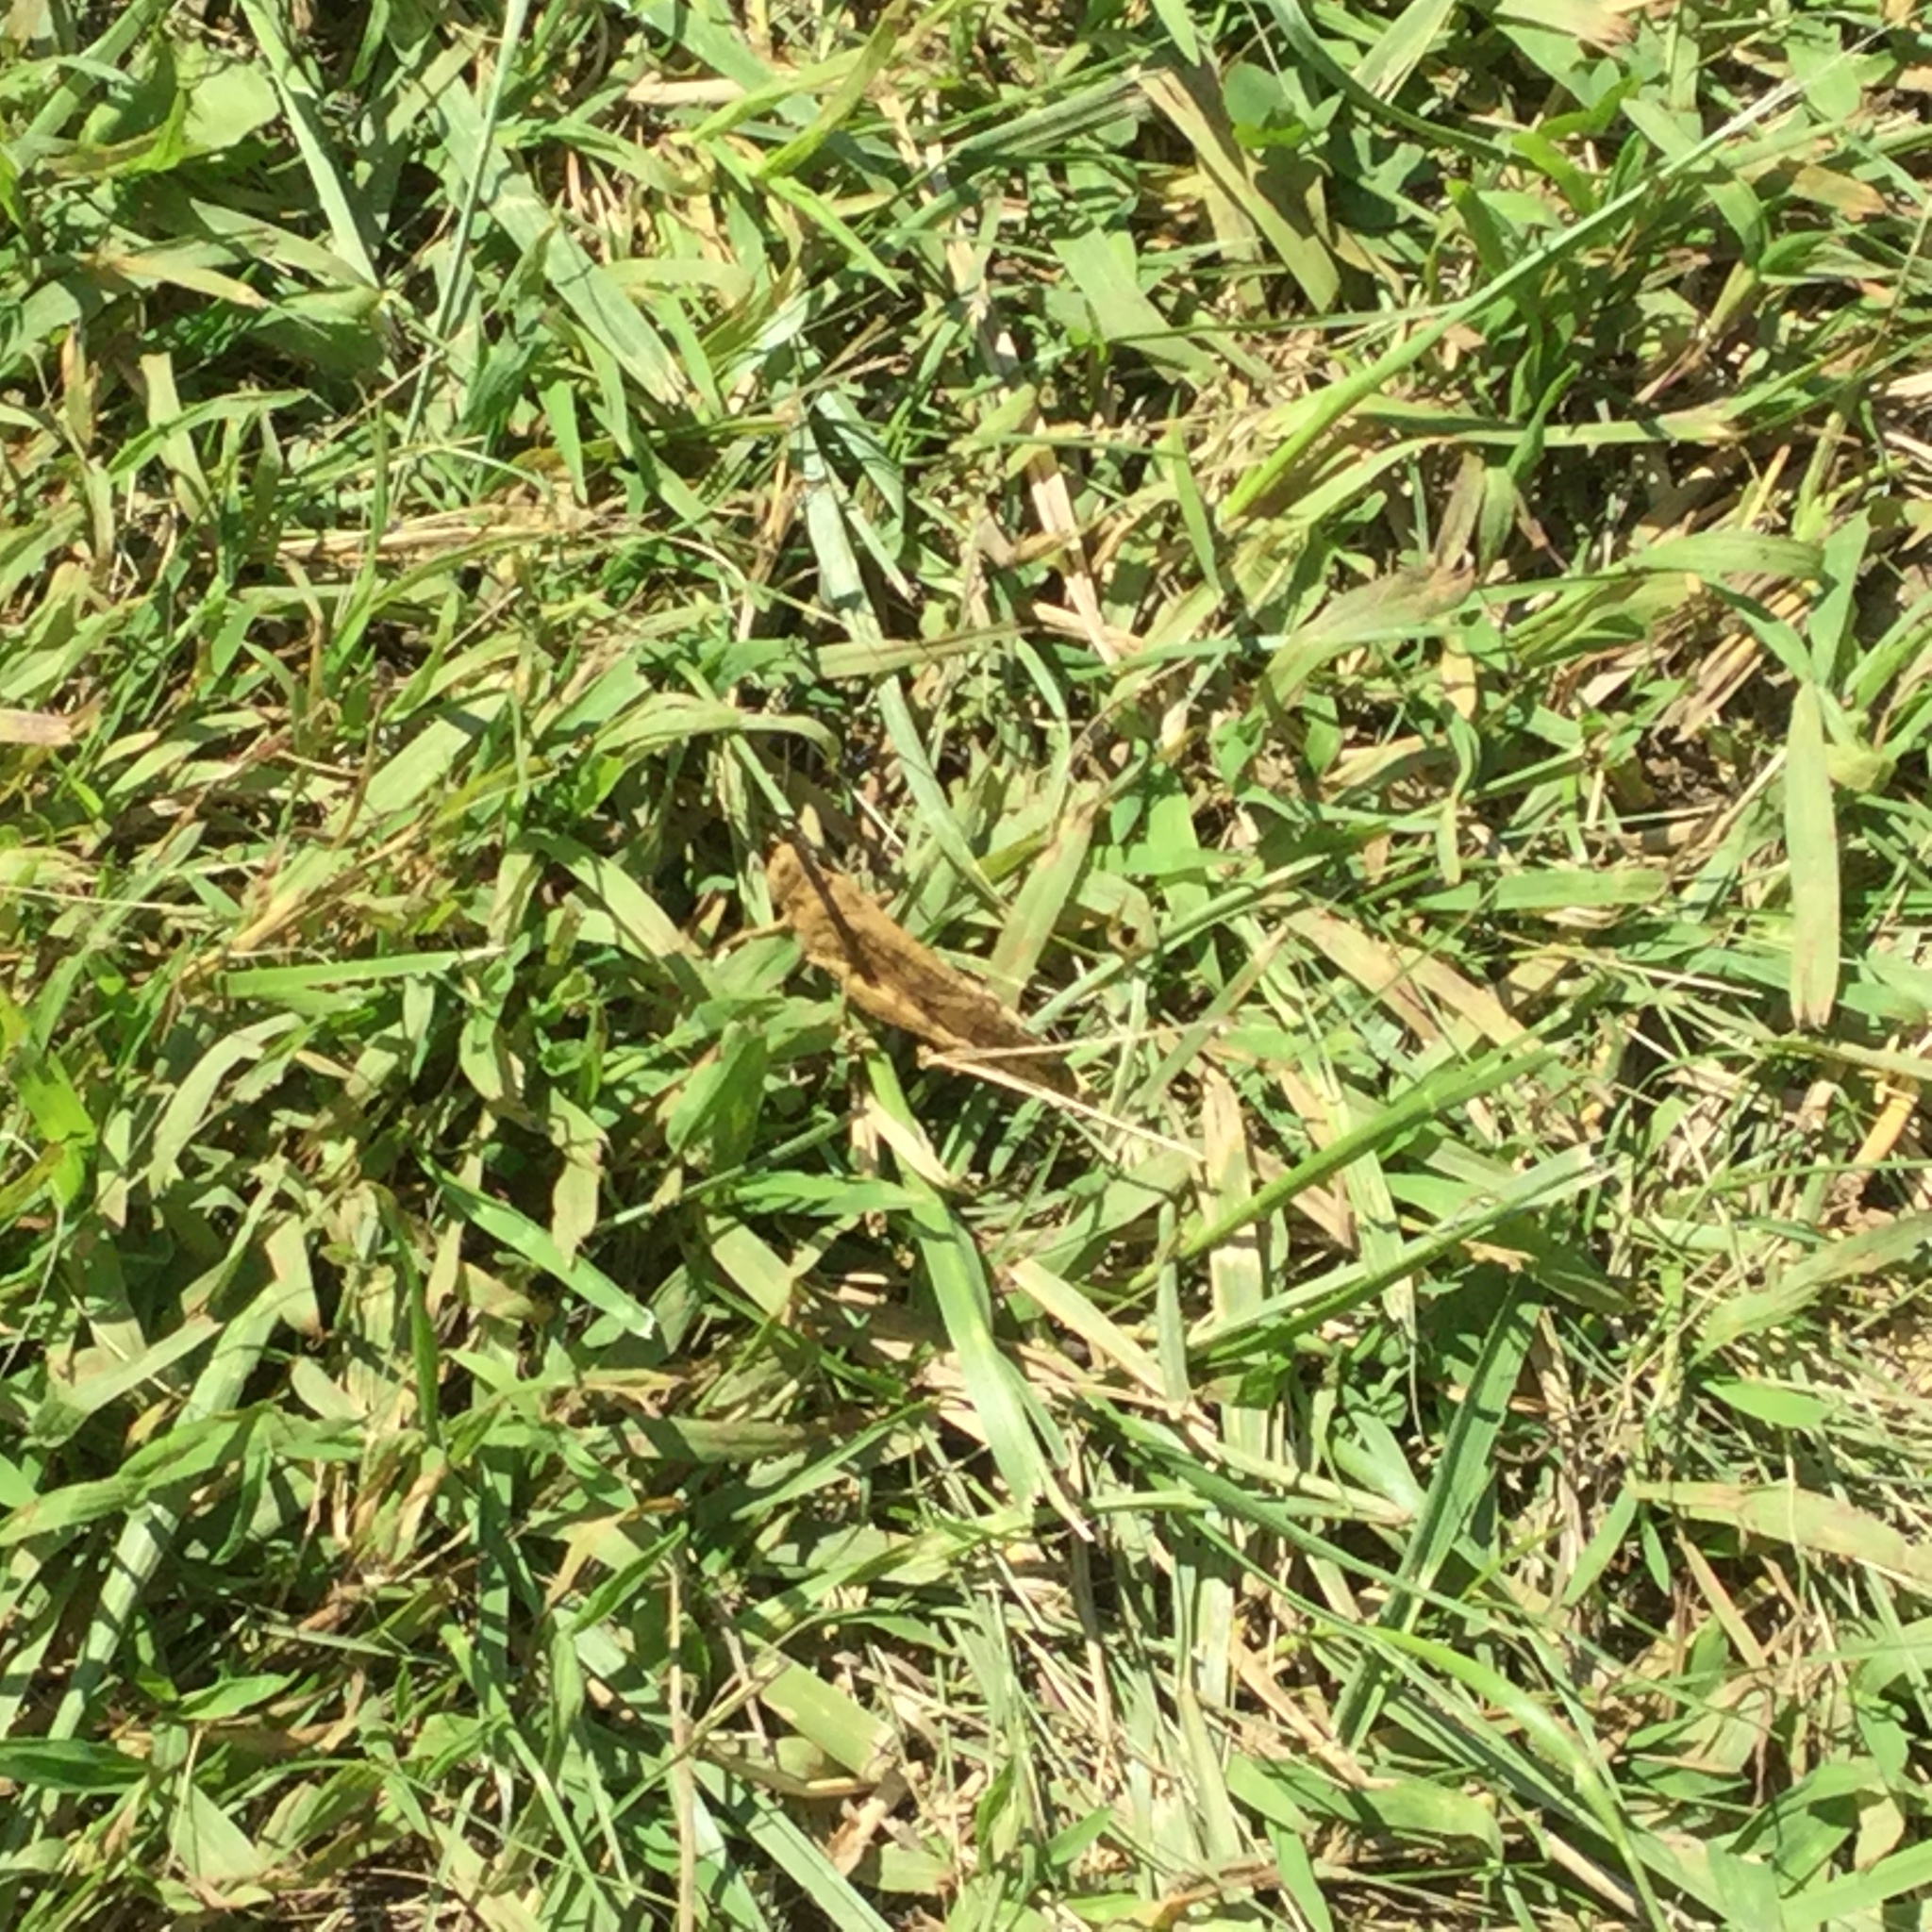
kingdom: Animalia
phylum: Arthropoda
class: Insecta
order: Orthoptera
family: Acrididae
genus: Dissosteira
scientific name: Dissosteira carolina
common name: Carolina grasshopper
